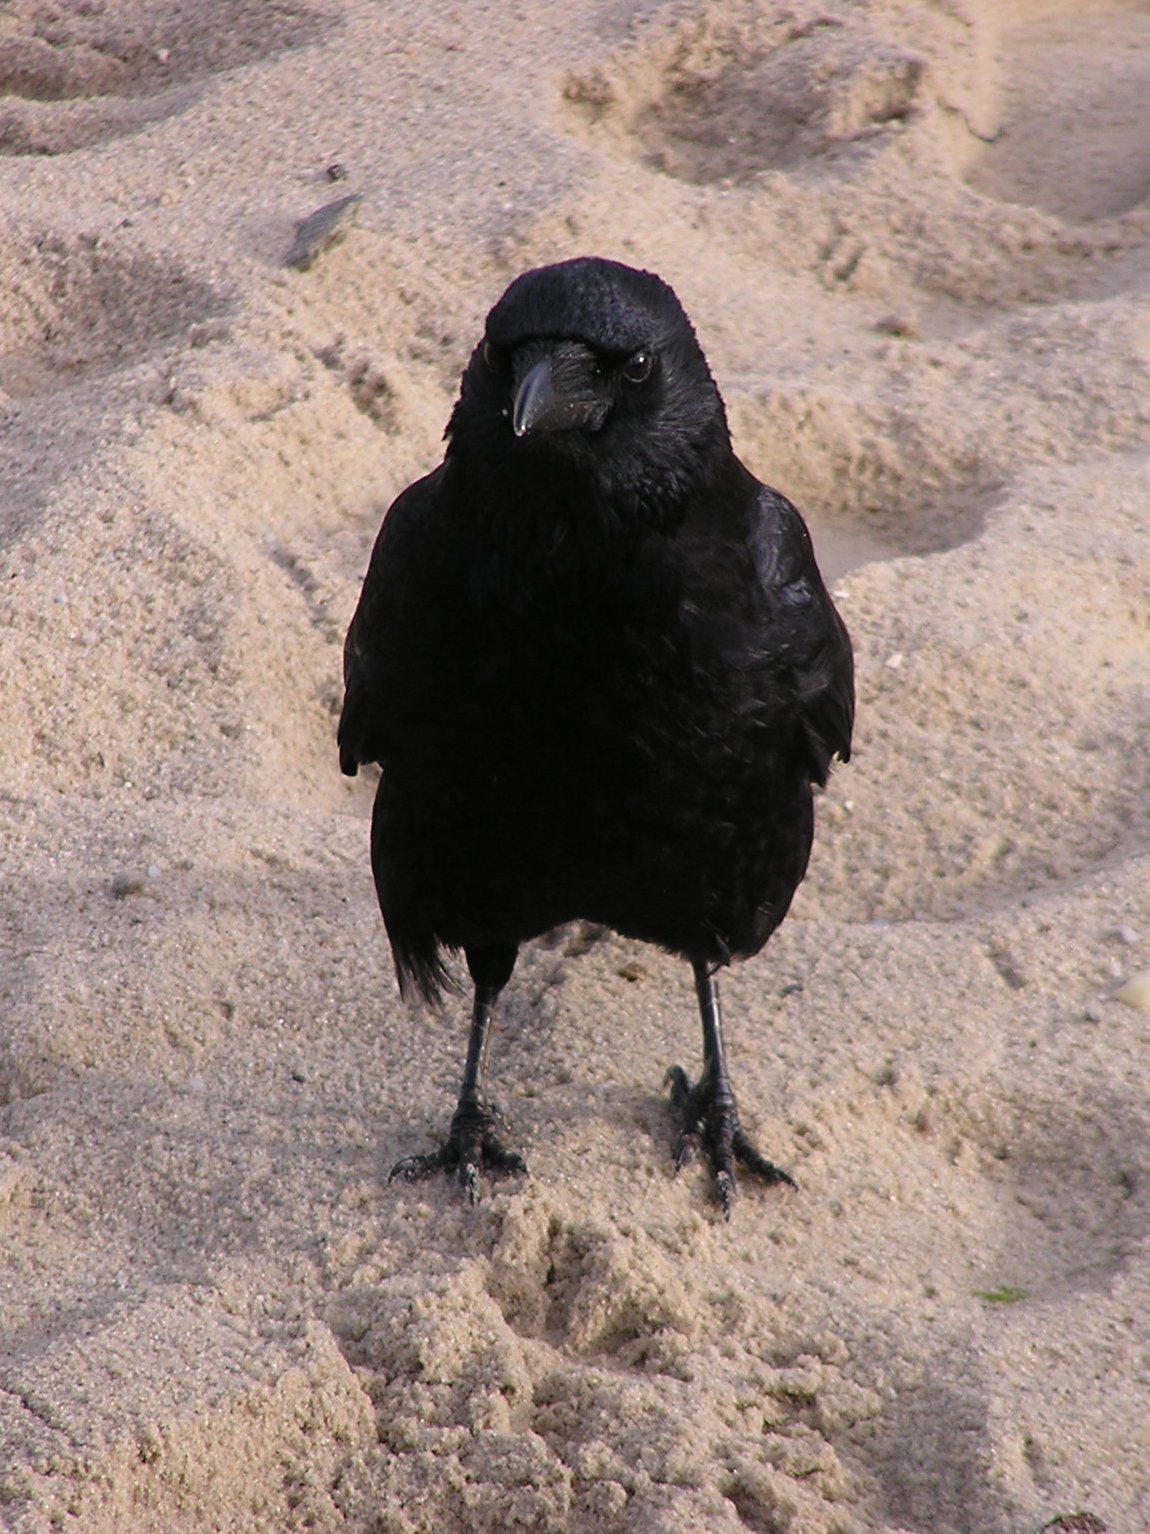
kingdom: Animalia
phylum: Chordata
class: Aves
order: Passeriformes
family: Corvidae
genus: Corvus
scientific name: Corvus corone
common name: Carrion crow
